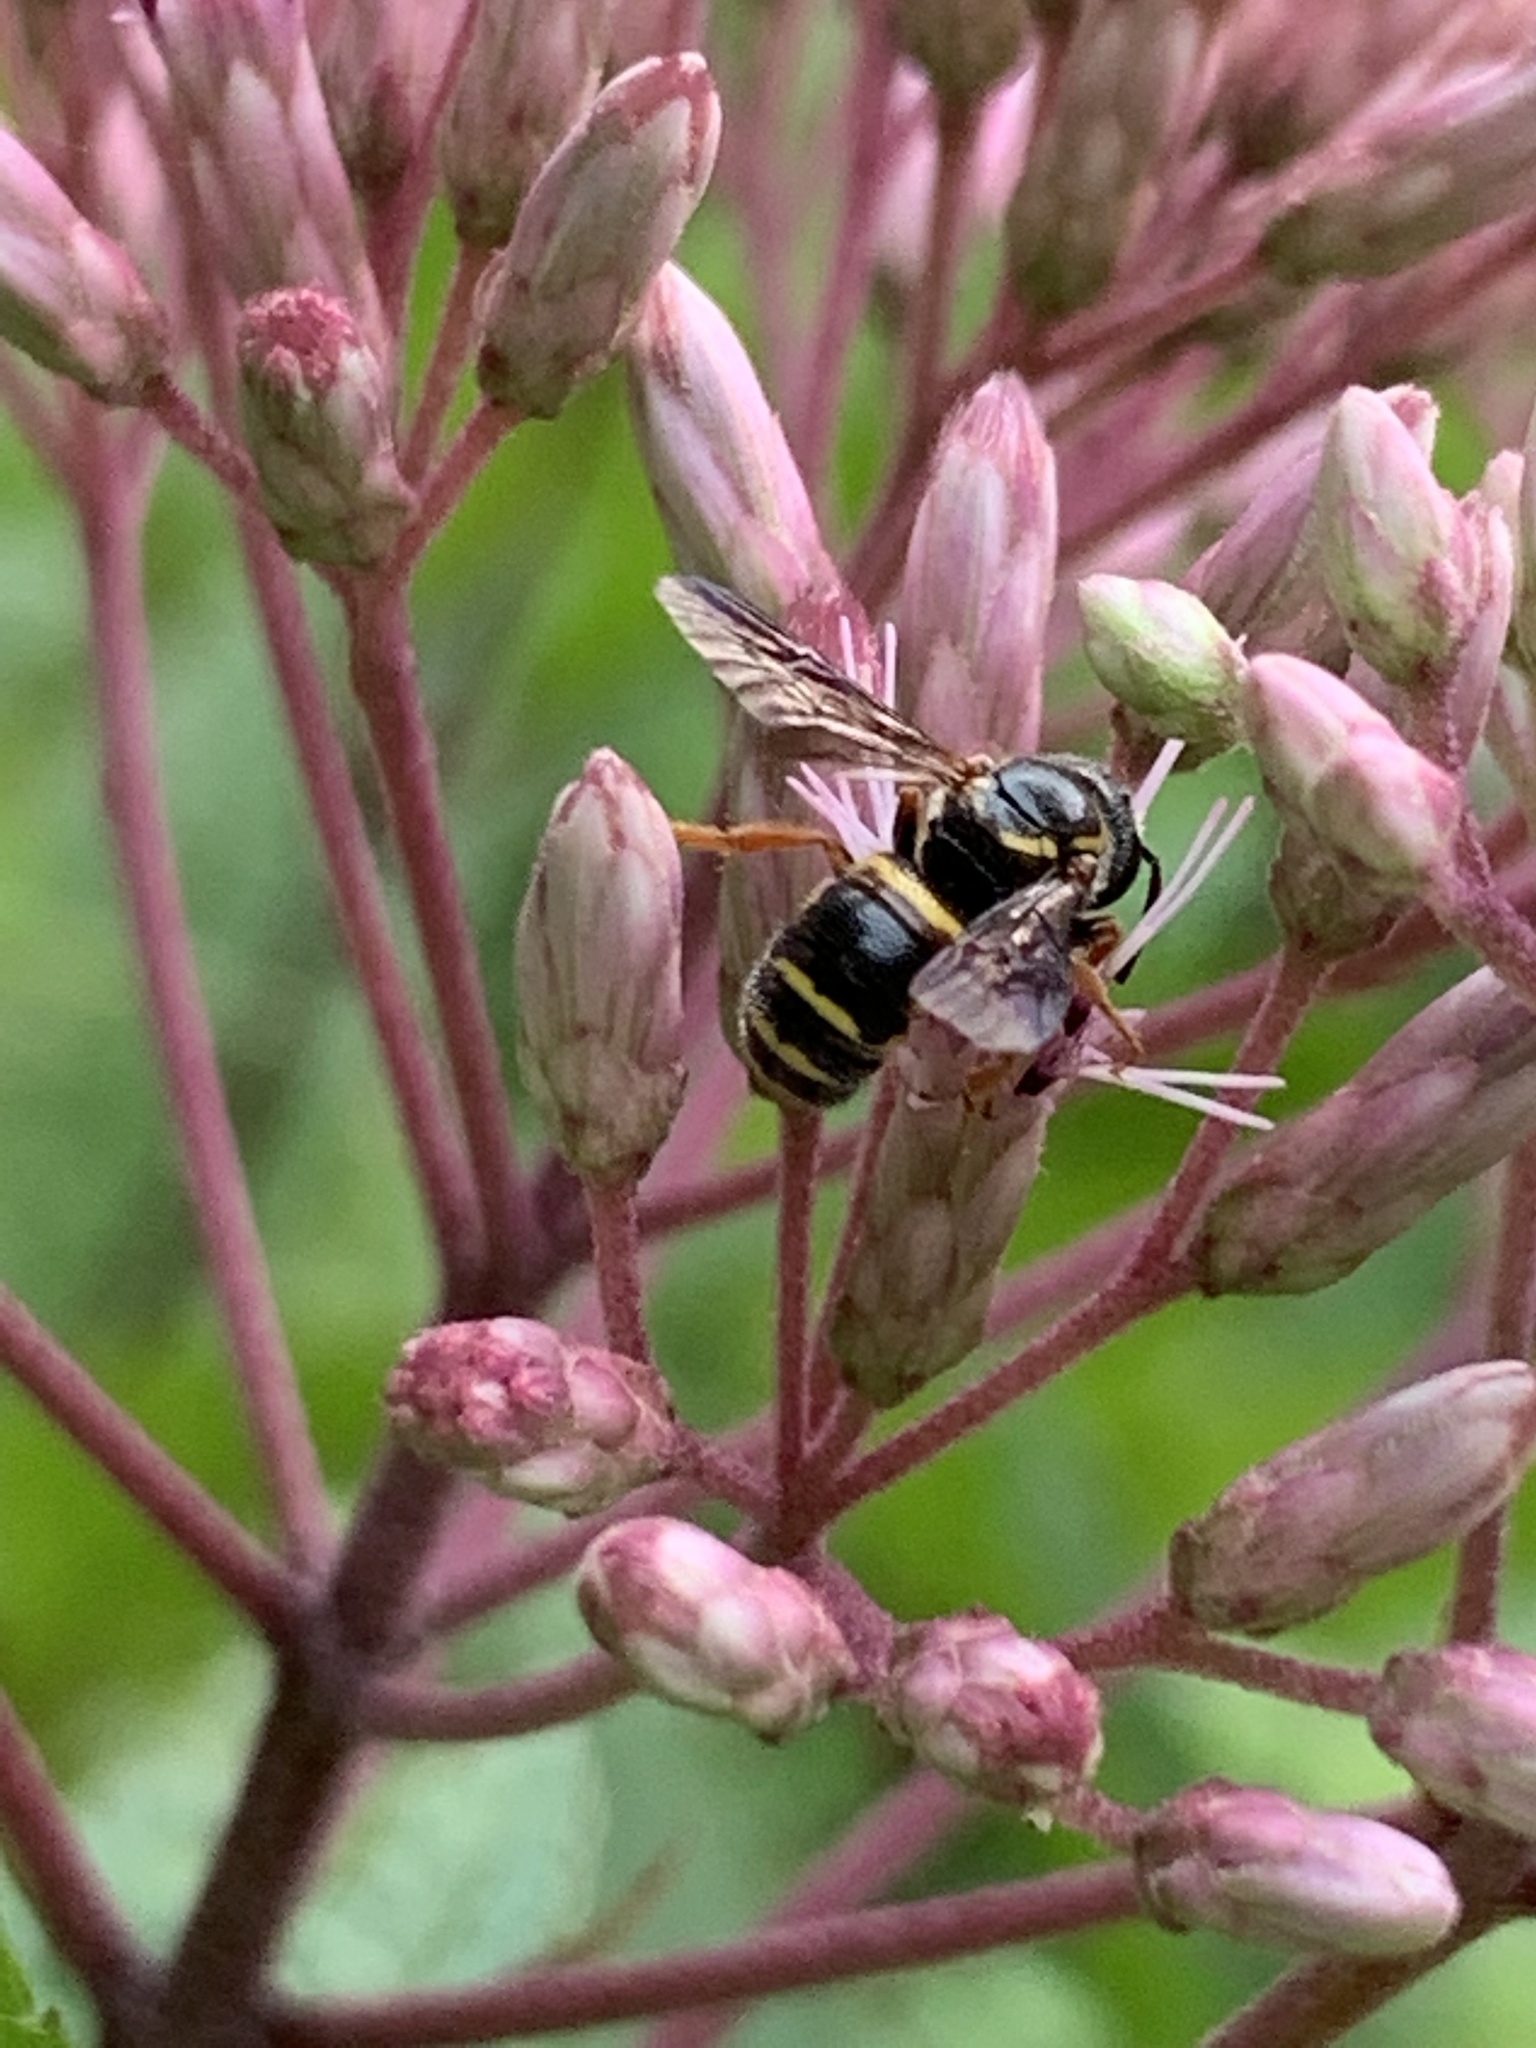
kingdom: Animalia
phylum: Arthropoda
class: Insecta
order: Hymenoptera
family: Megachilidae
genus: Stelis
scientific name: Stelis louisae
